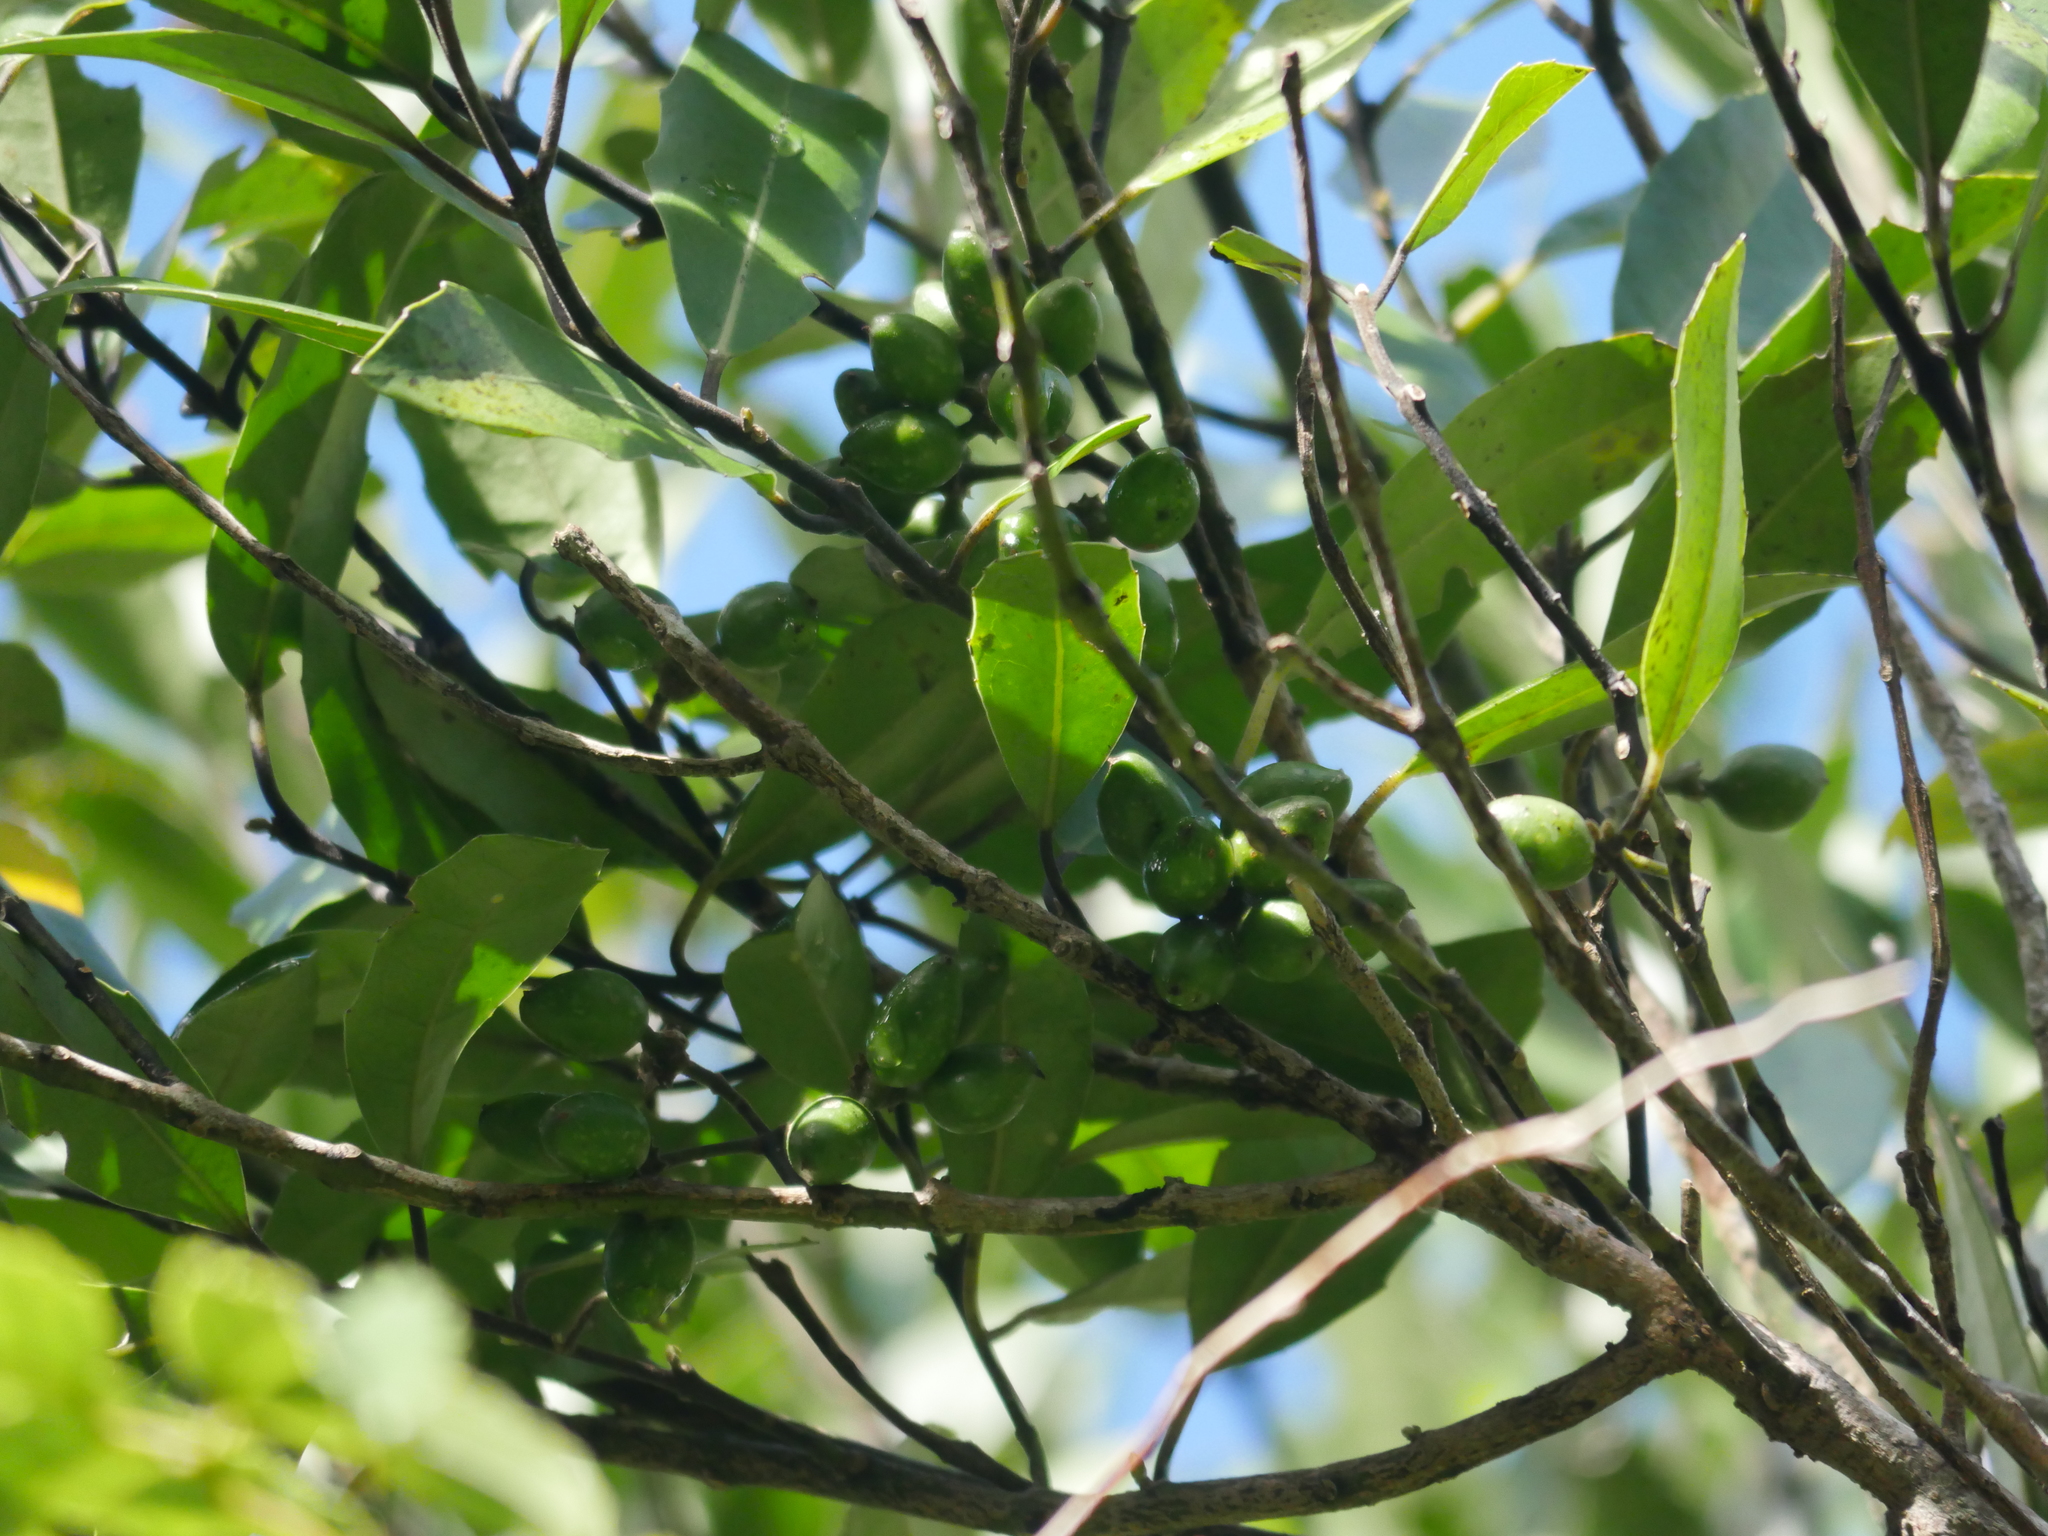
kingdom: Plantae
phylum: Tracheophyta
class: Magnoliopsida
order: Laurales
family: Monimiaceae
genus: Hedycarya
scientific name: Hedycarya arborea
